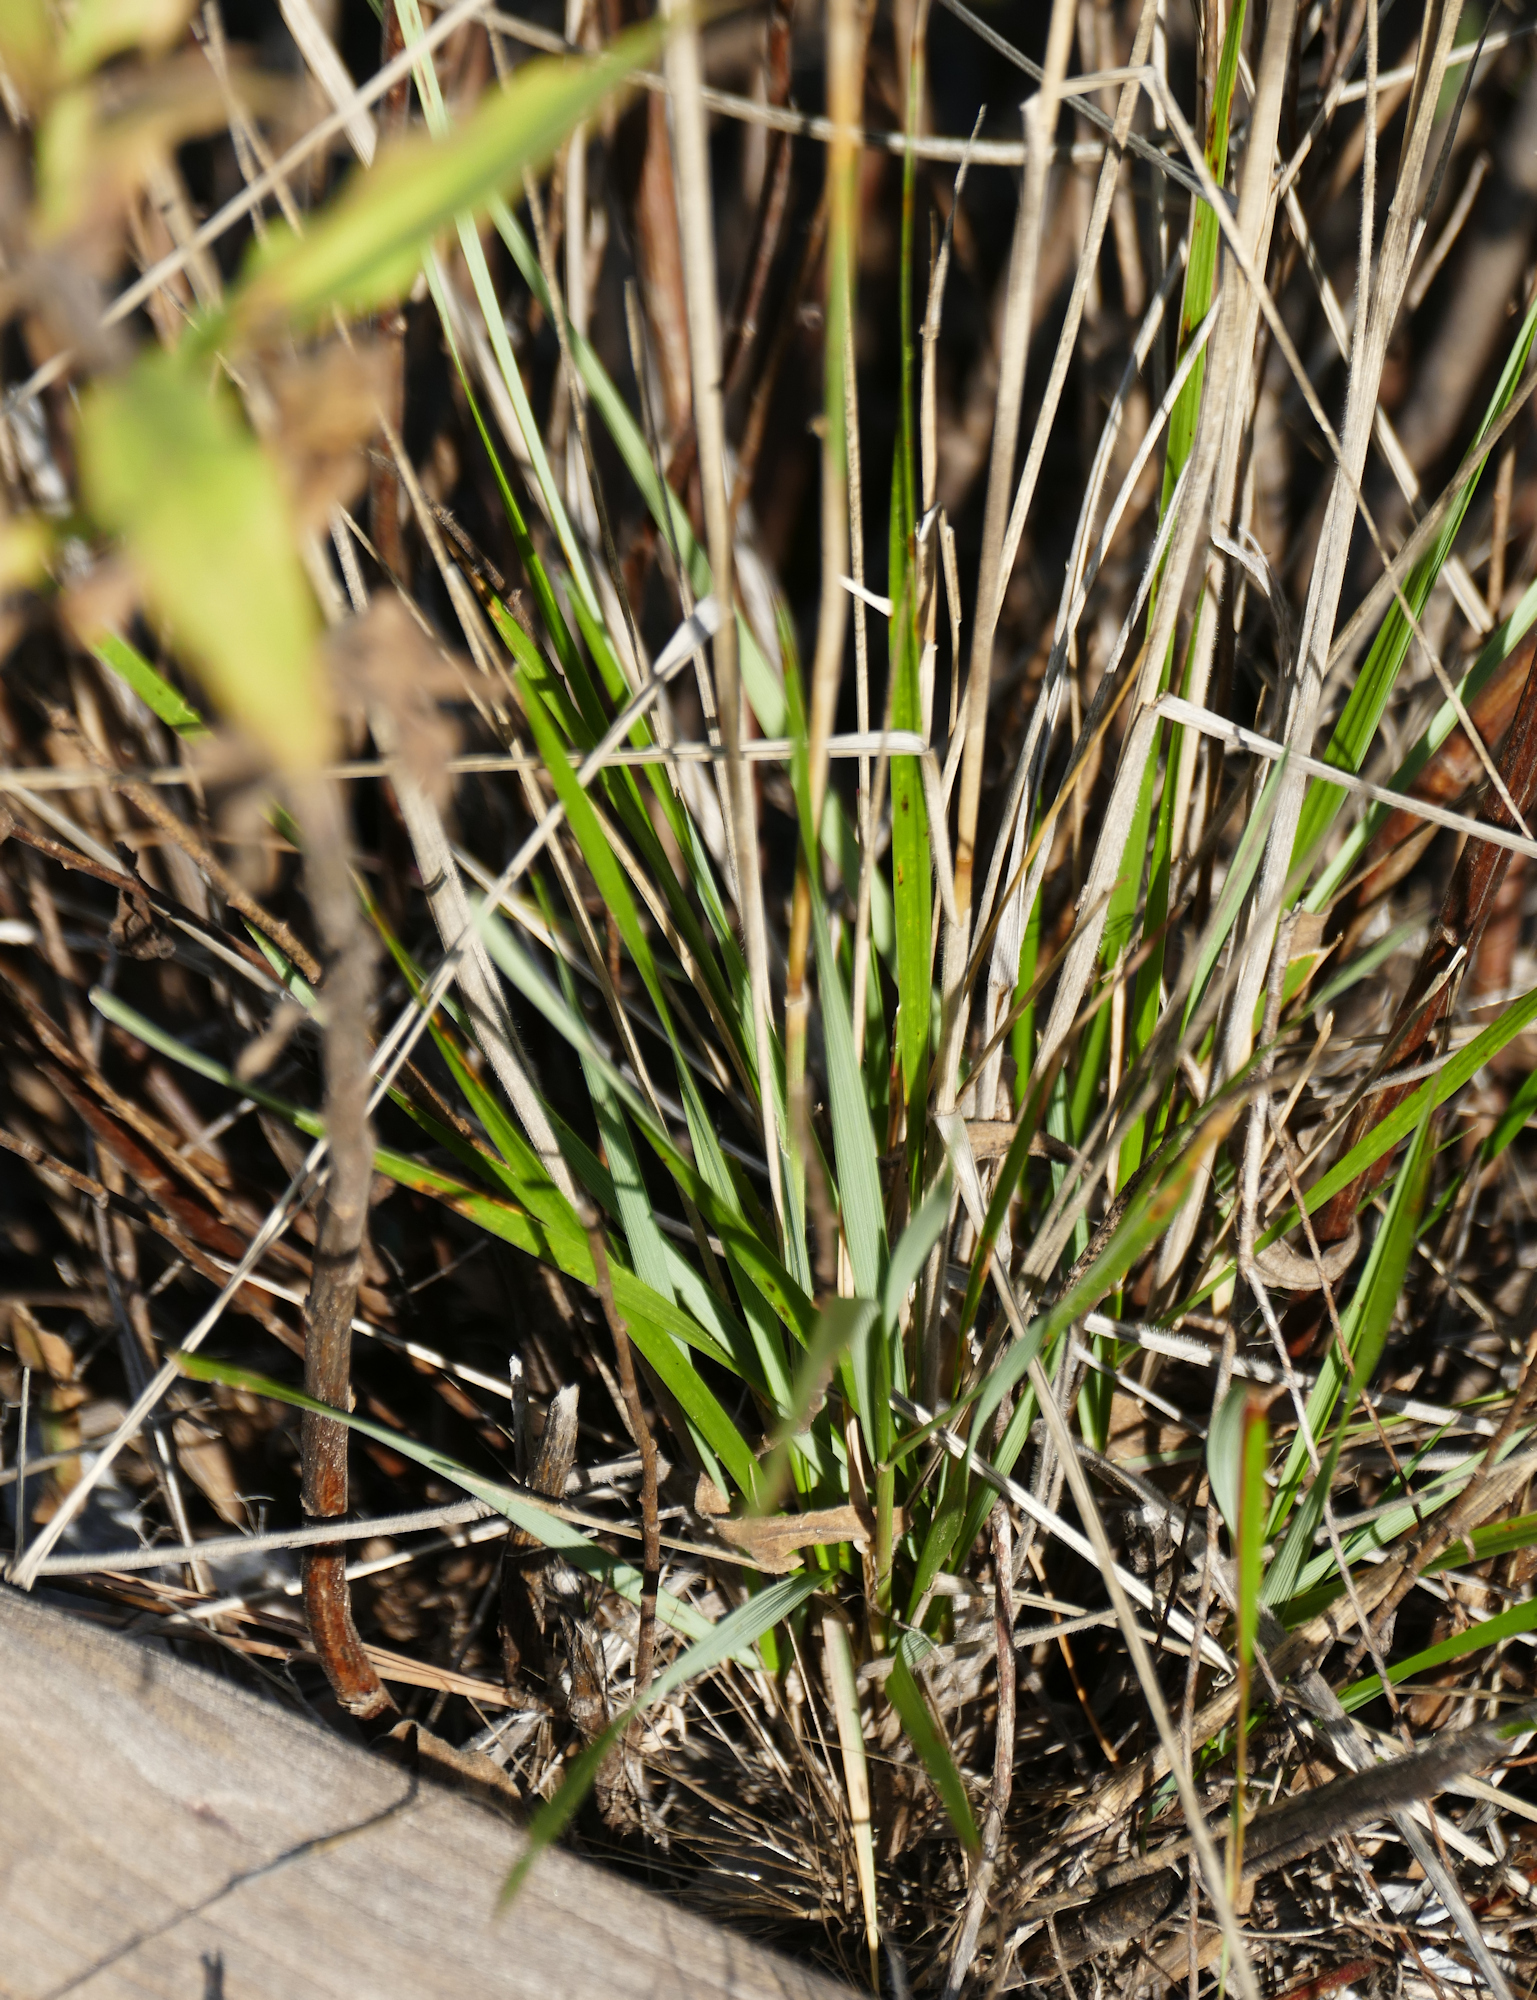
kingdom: Plantae
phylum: Tracheophyta
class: Liliopsida
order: Poales
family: Poaceae
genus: Elymus
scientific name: Elymus longifolius
